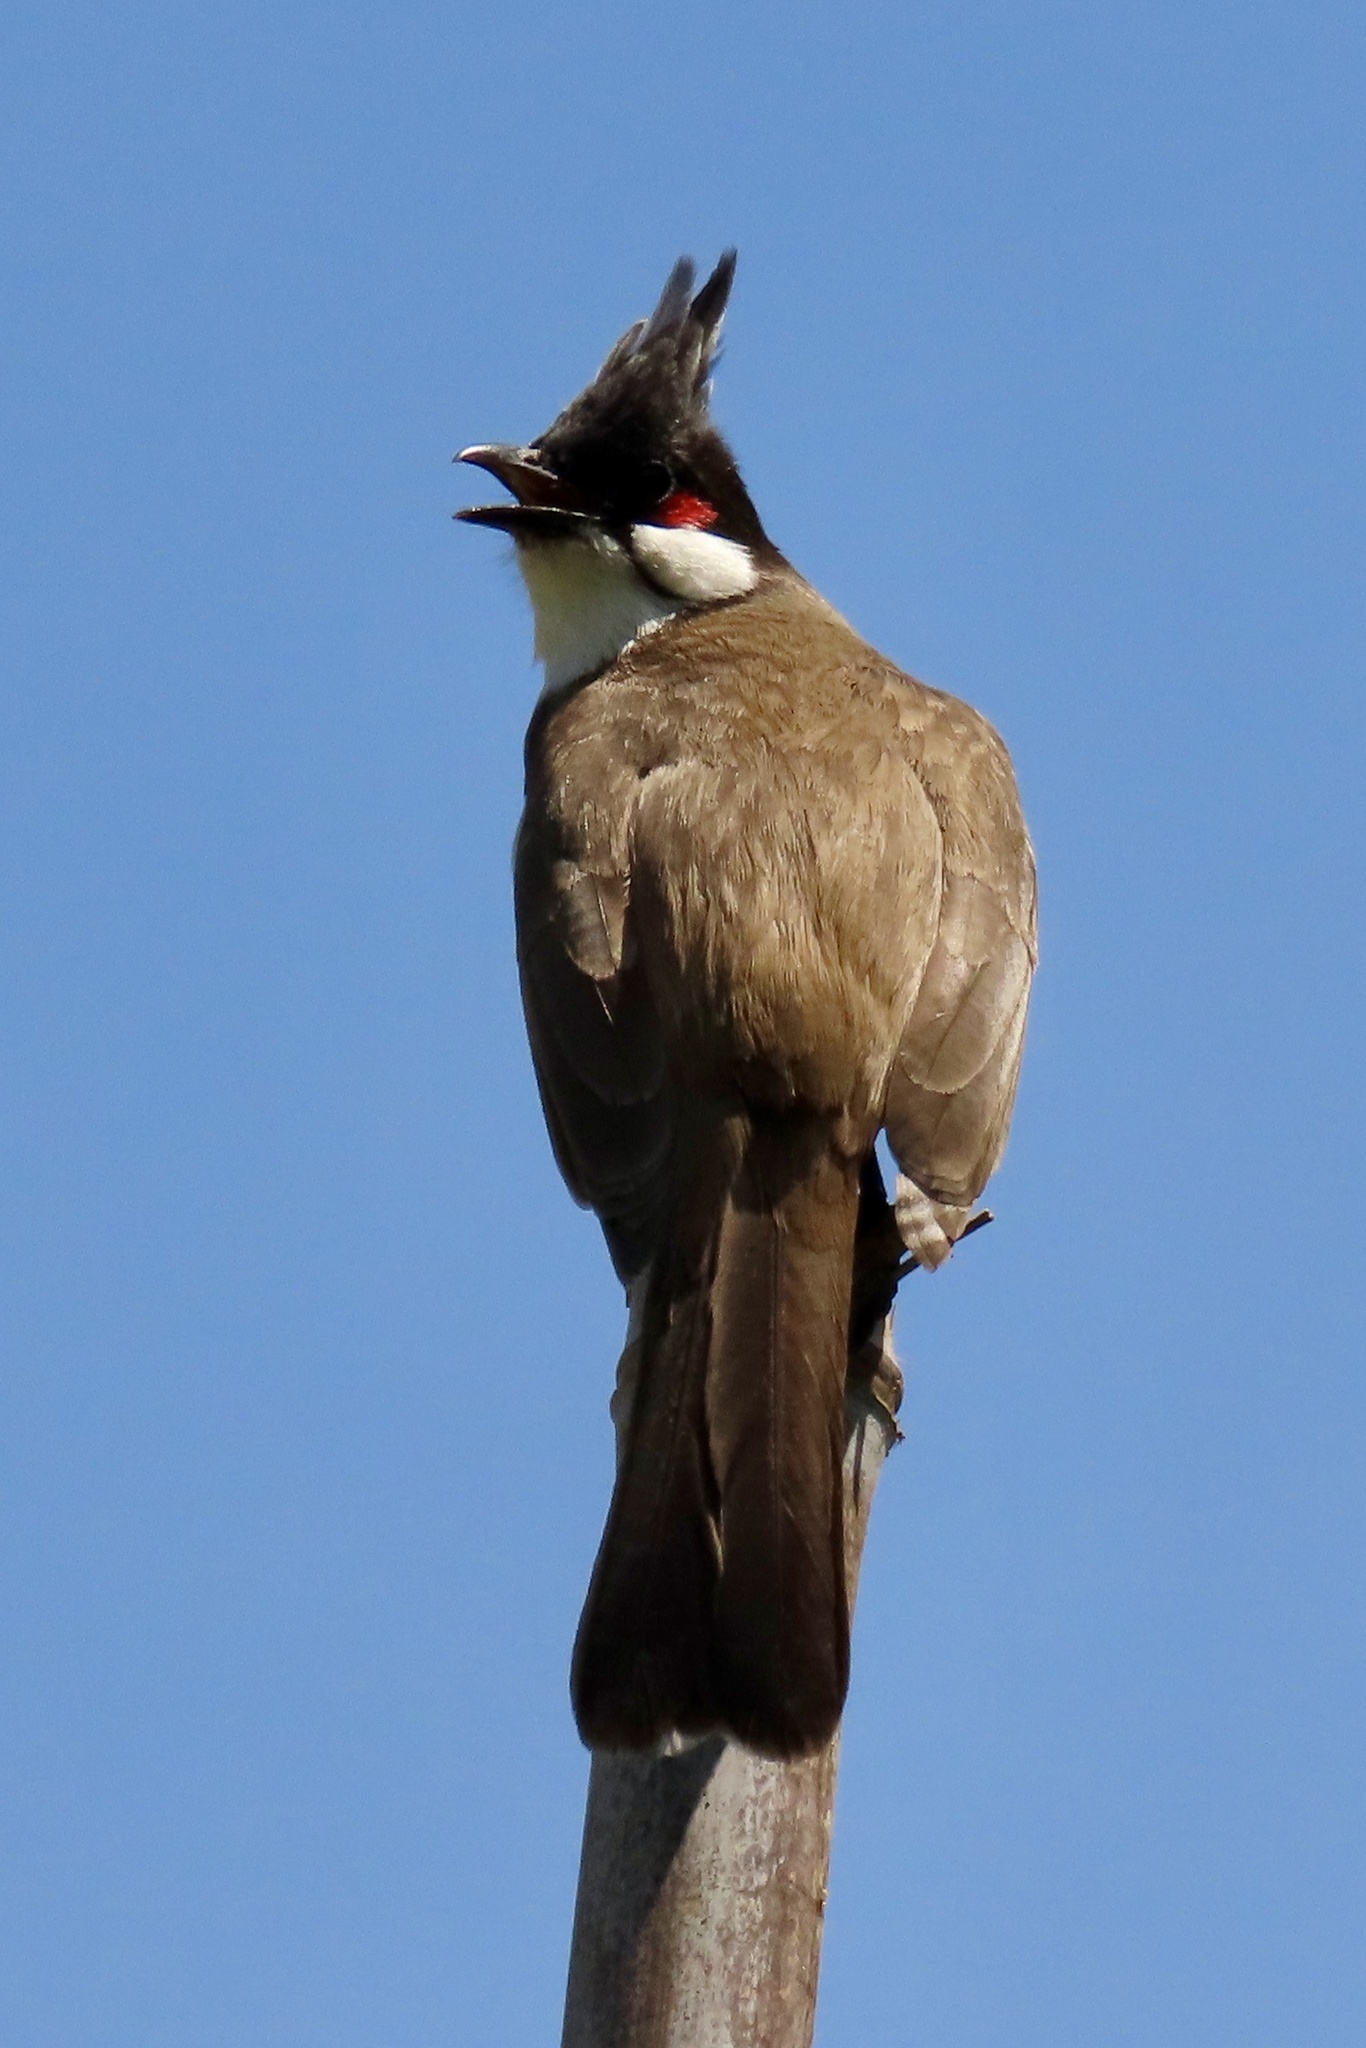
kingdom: Animalia
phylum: Chordata
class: Aves
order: Passeriformes
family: Pycnonotidae
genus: Pycnonotus
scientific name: Pycnonotus jocosus
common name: Red-whiskered bulbul
